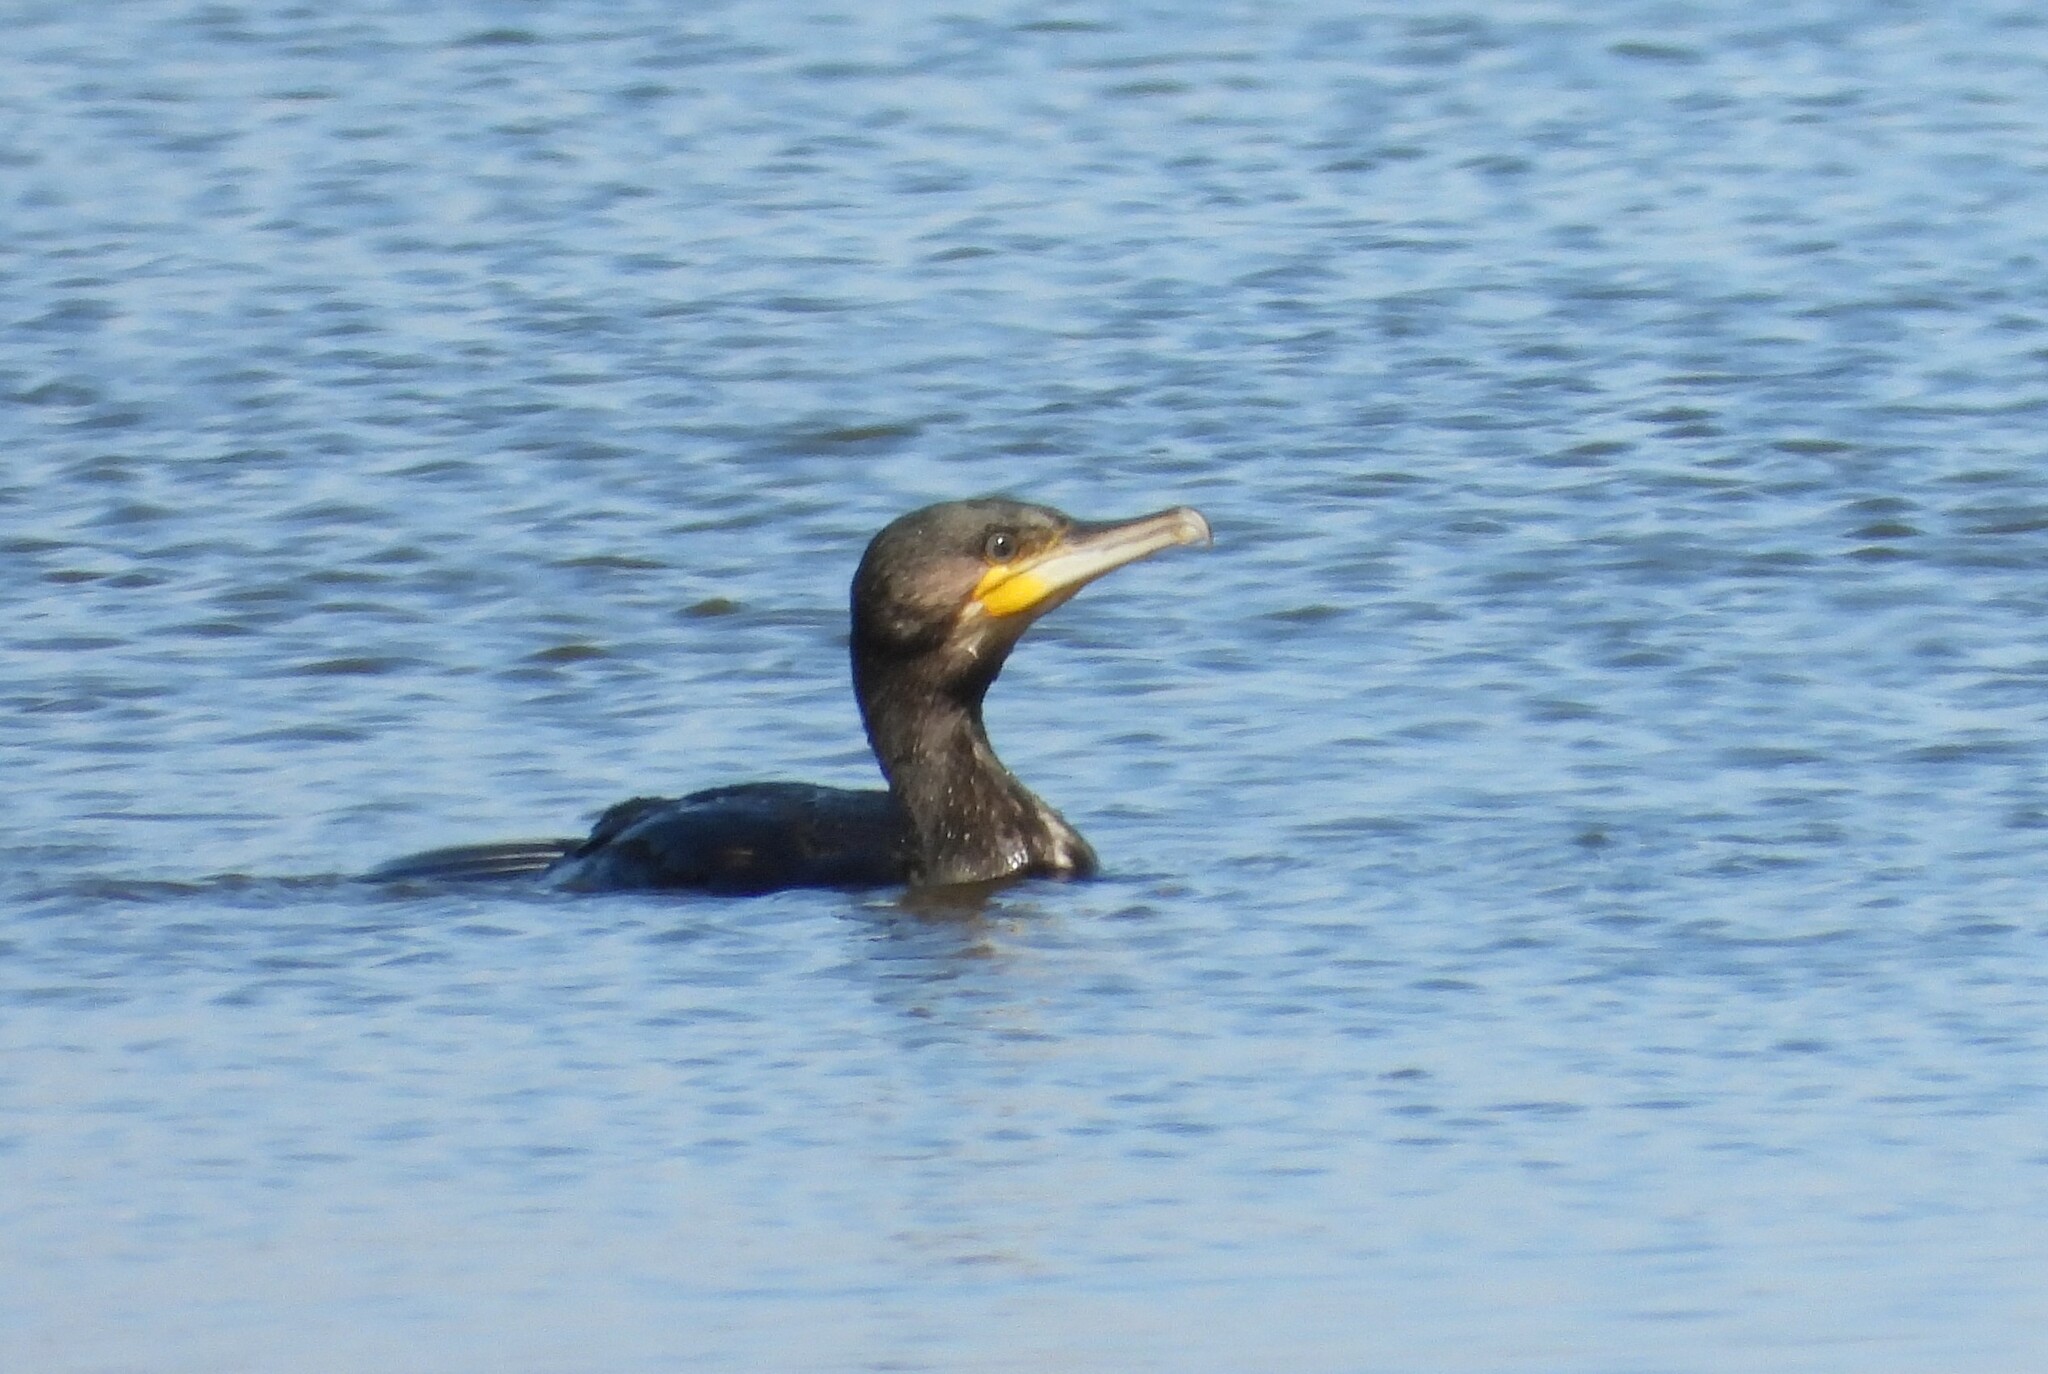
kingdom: Animalia
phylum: Chordata
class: Aves
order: Suliformes
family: Phalacrocoracidae
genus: Phalacrocorax
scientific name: Phalacrocorax carbo
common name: Great cormorant
